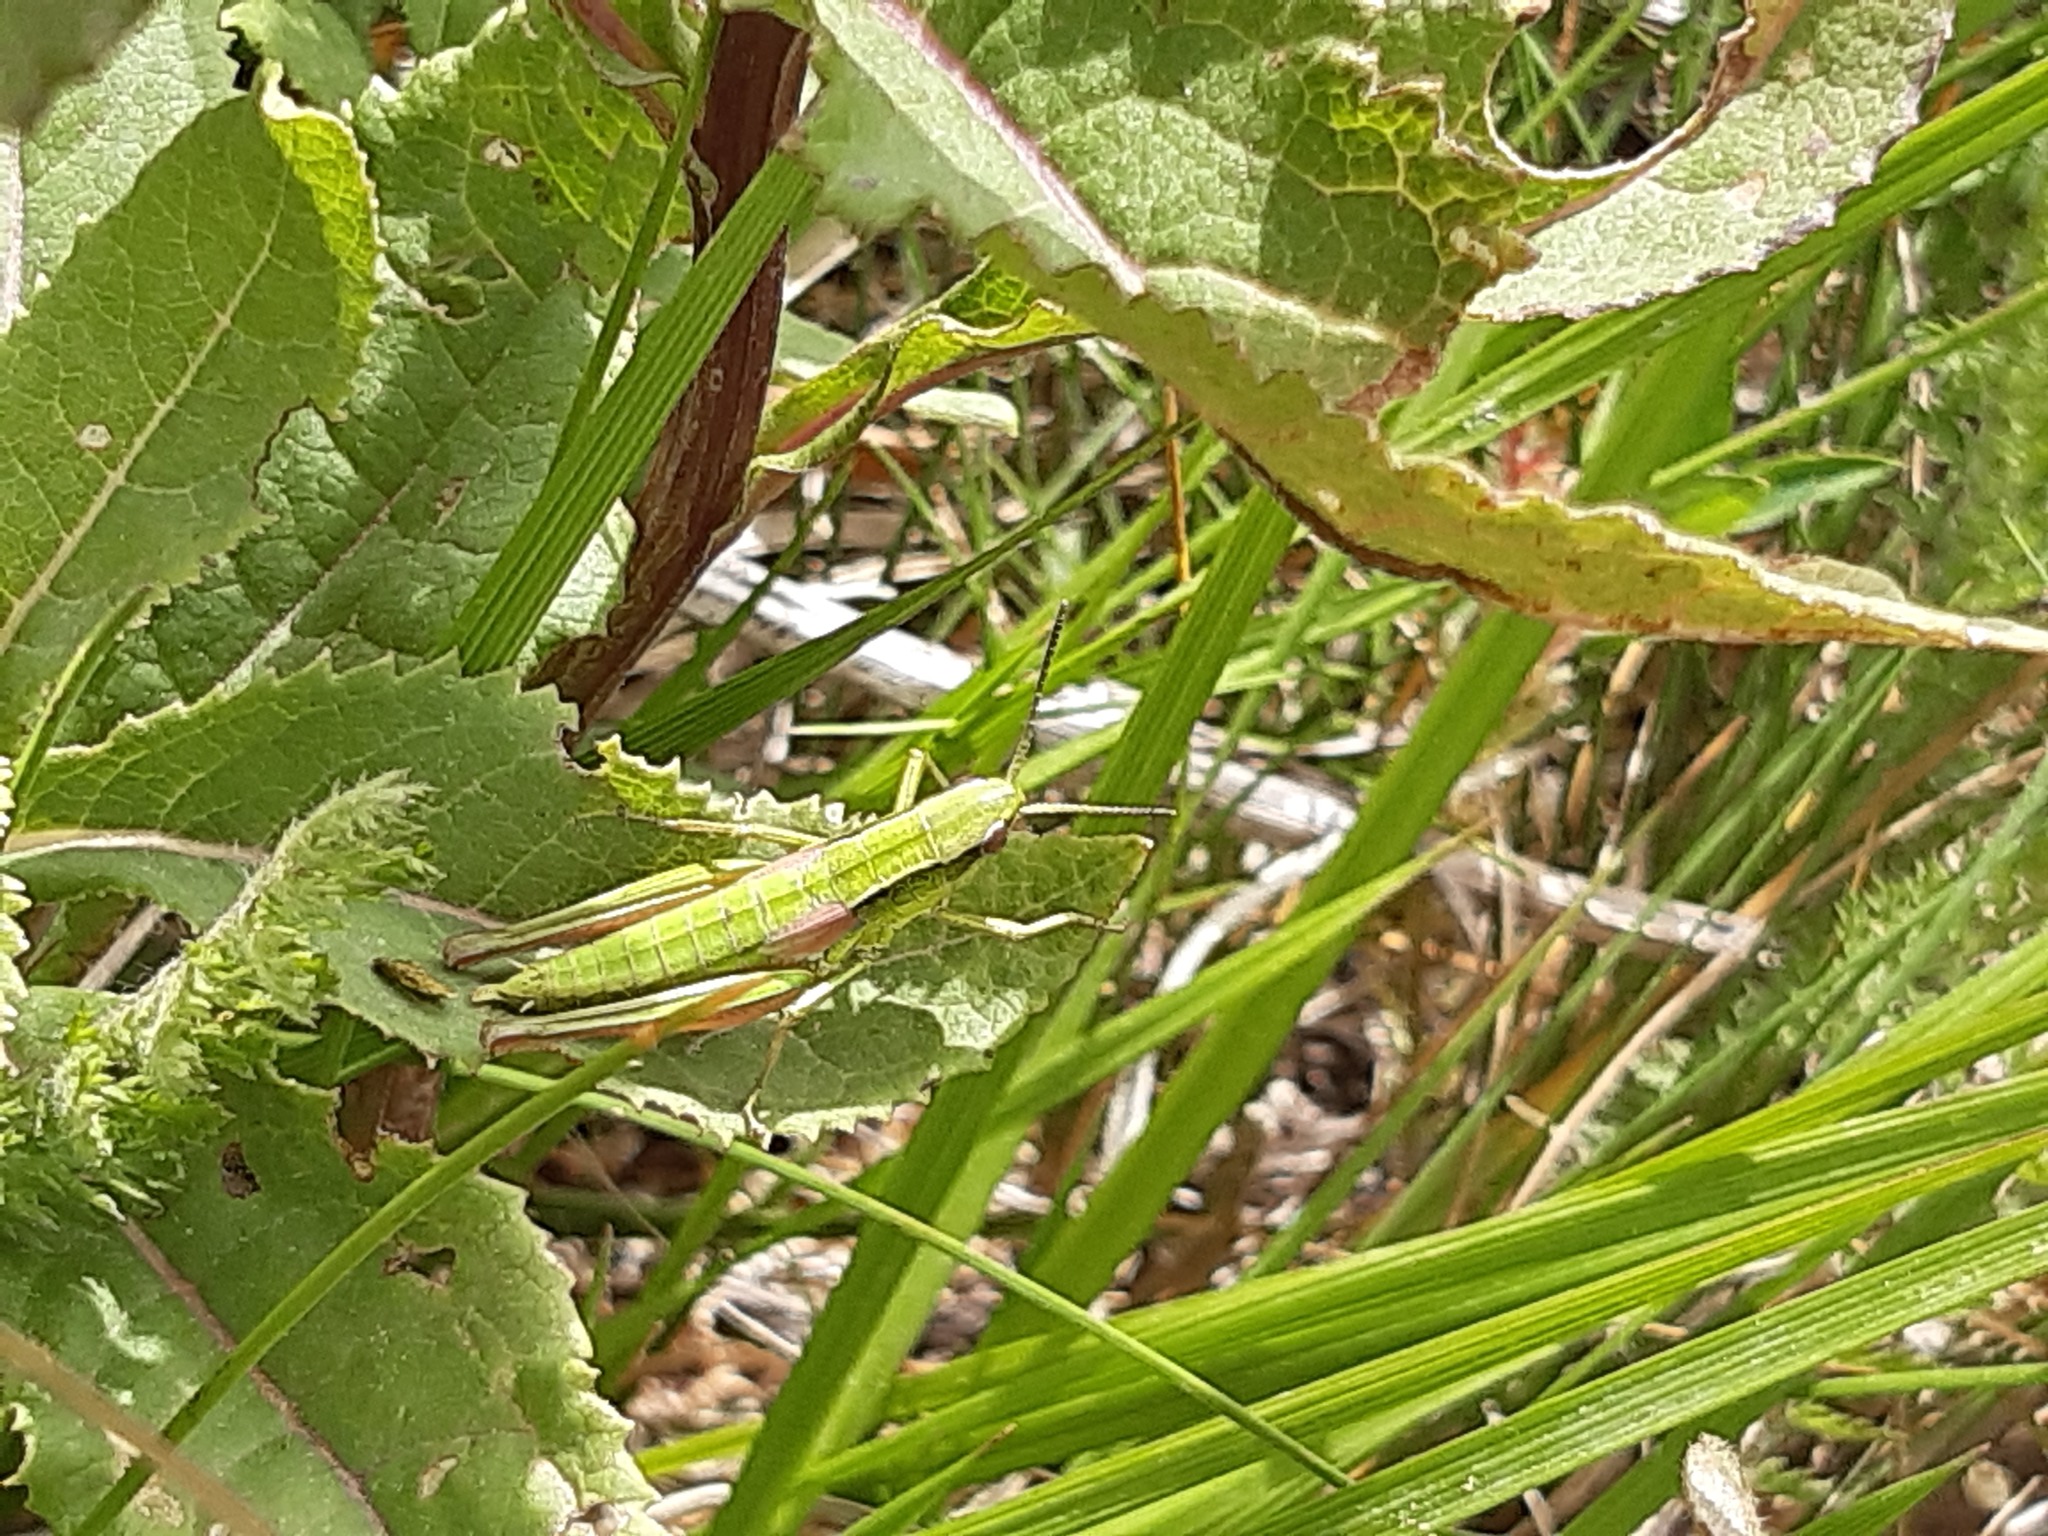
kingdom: Animalia
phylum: Arthropoda
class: Insecta
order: Orthoptera
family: Acrididae
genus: Euthystira
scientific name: Euthystira brachyptera
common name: Small gold grasshopper
